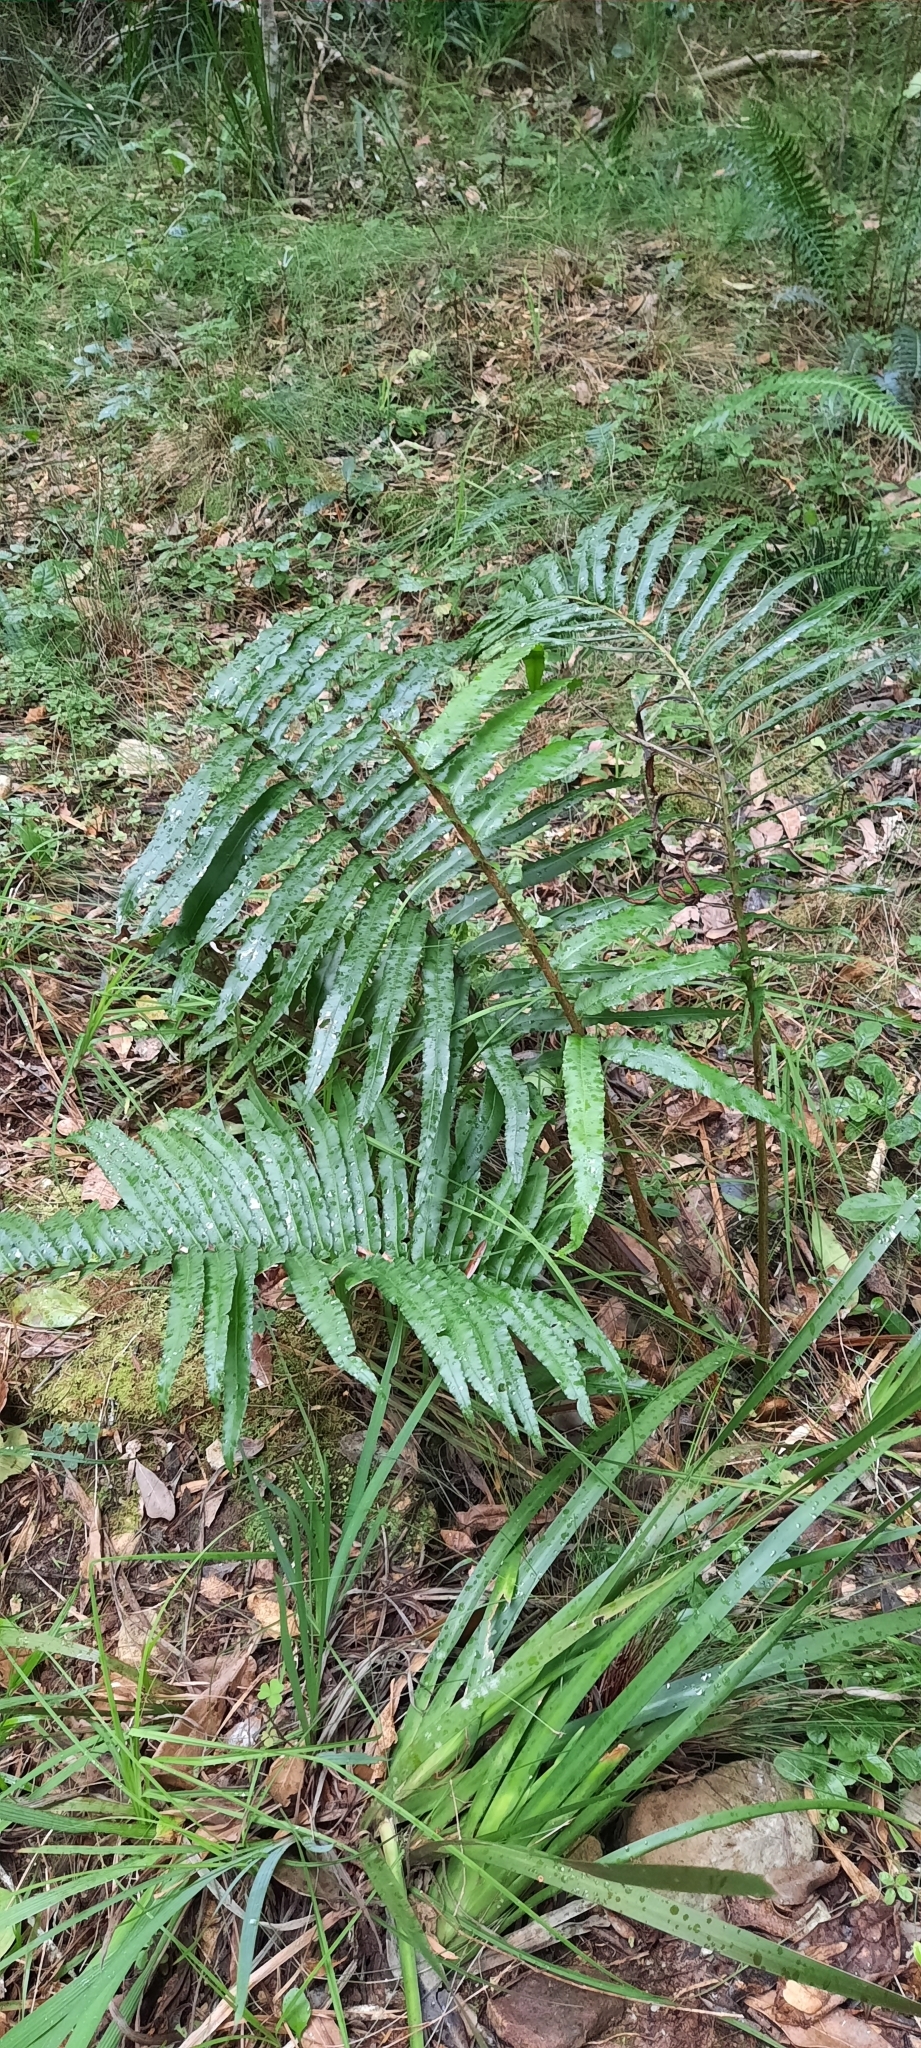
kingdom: Plantae
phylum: Tracheophyta
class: Polypodiopsida
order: Polypodiales
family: Blechnaceae
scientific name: Blechnaceae
